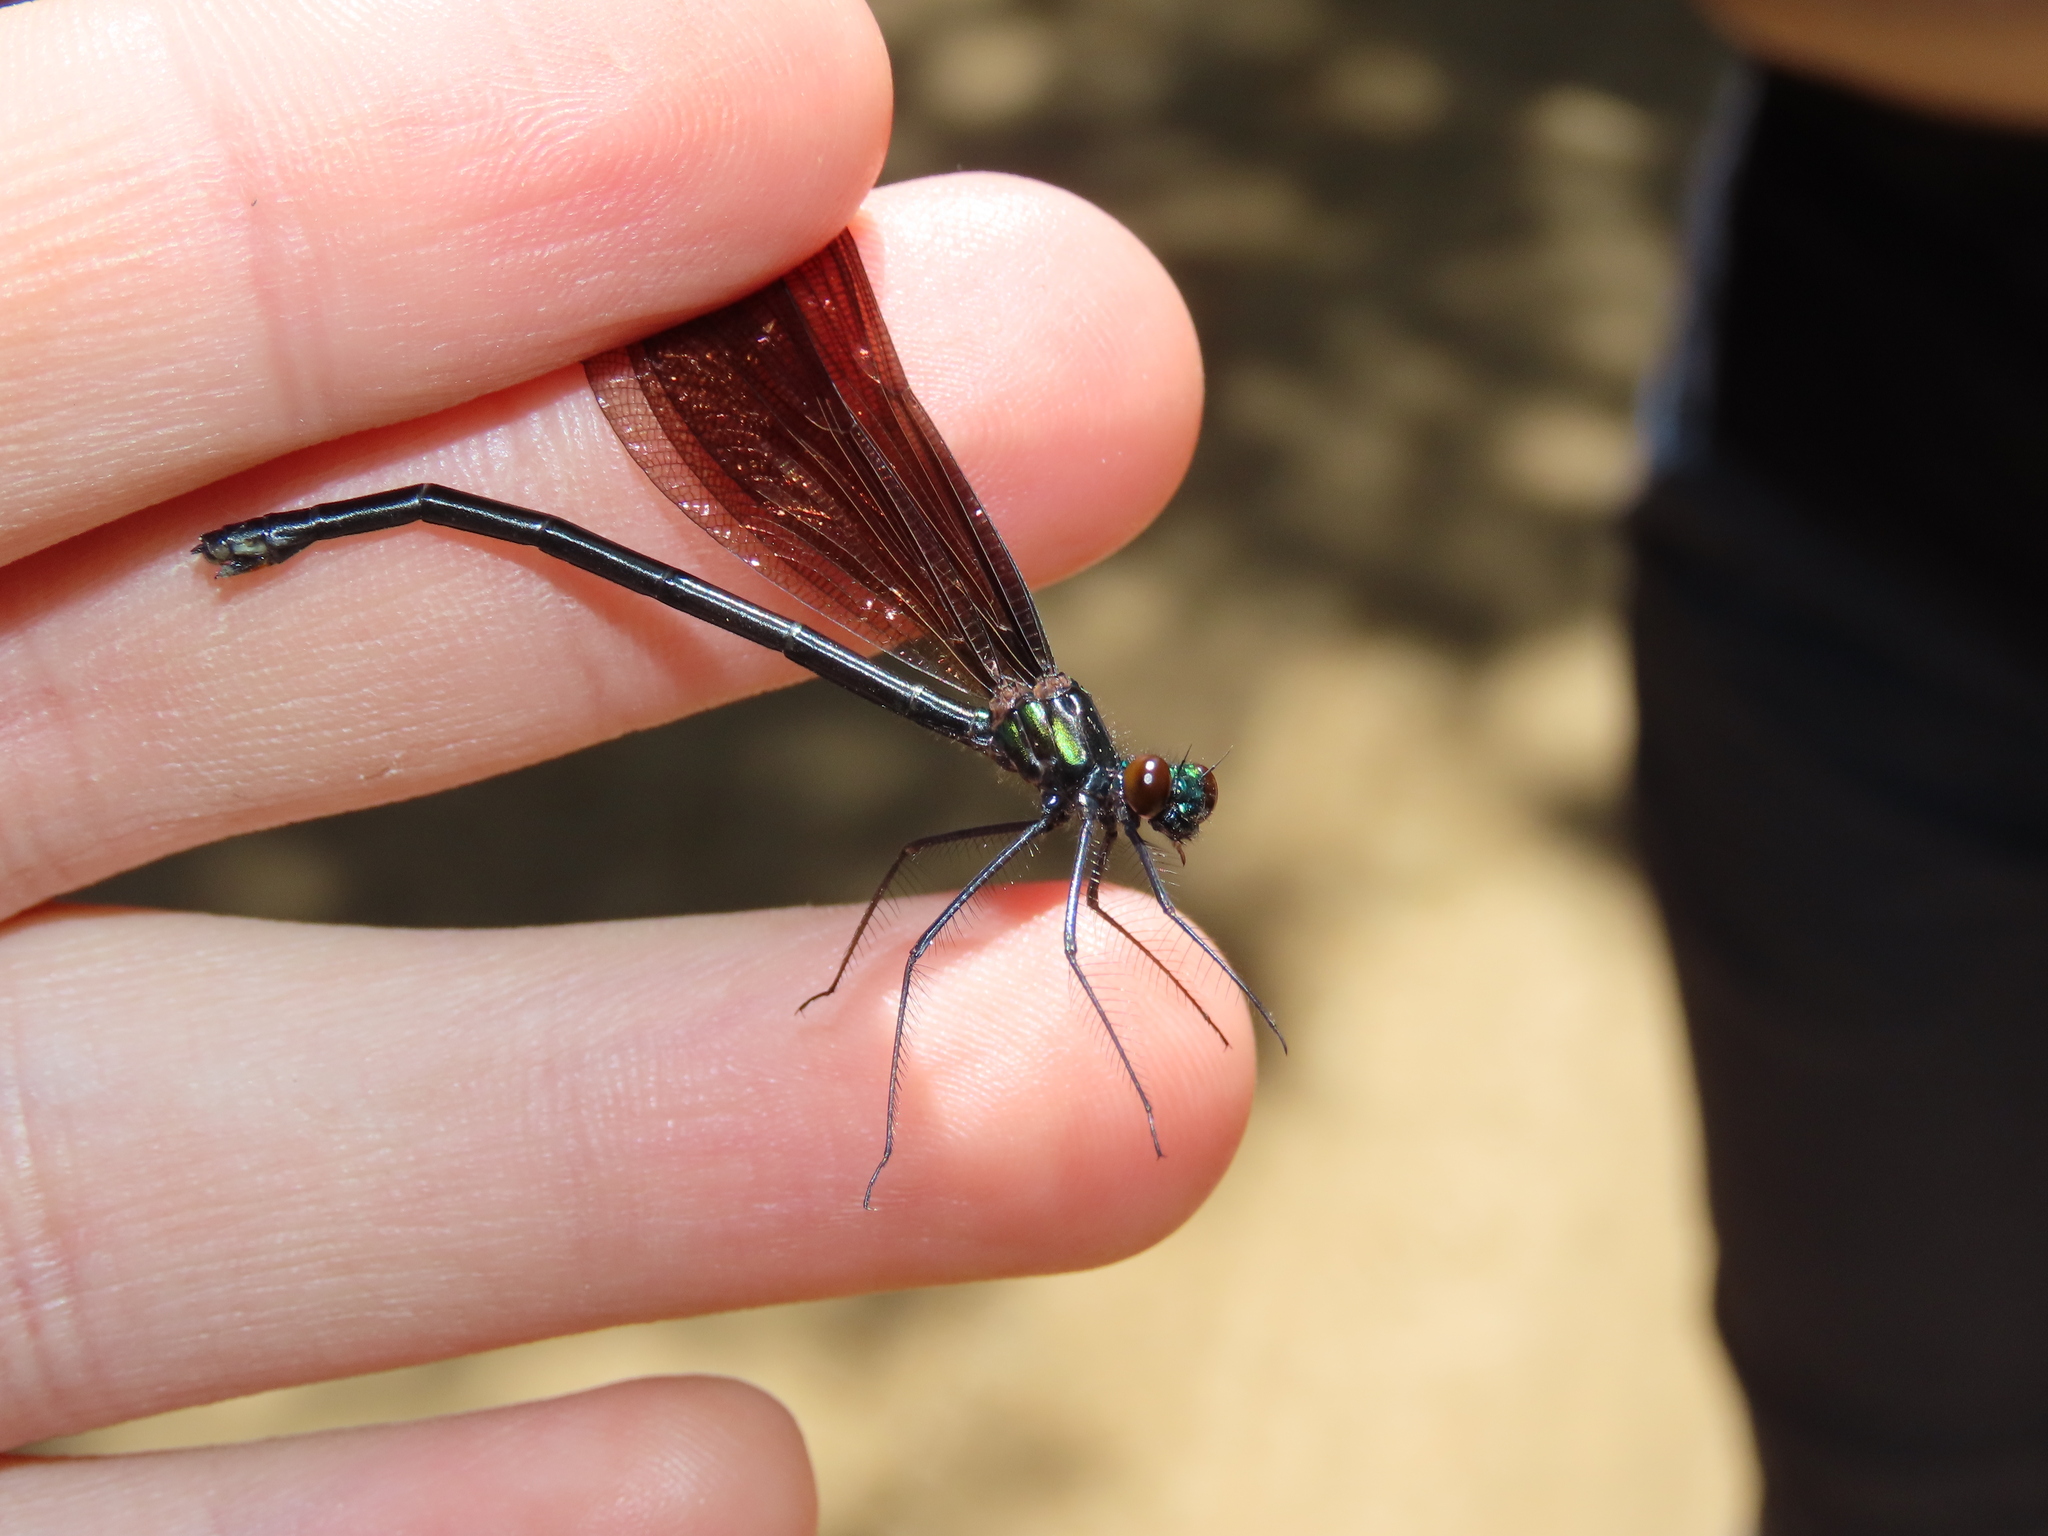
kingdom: Animalia
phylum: Arthropoda
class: Insecta
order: Odonata
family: Calopterygidae
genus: Calopteryx
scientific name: Calopteryx maculata
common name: Ebony jewelwing
